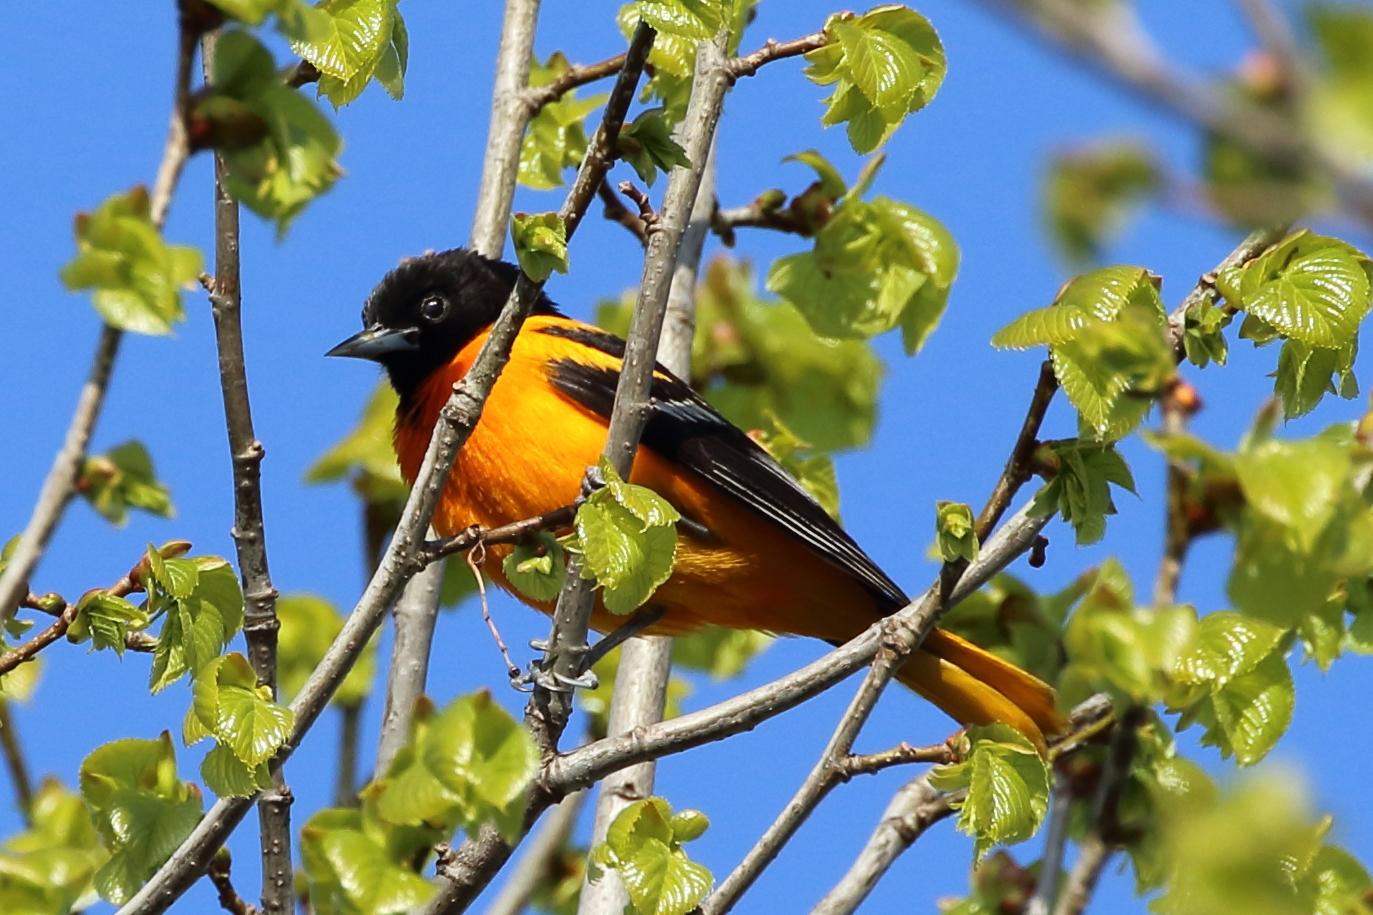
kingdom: Animalia
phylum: Chordata
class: Aves
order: Passeriformes
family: Icteridae
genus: Icterus
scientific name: Icterus galbula
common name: Baltimore oriole
